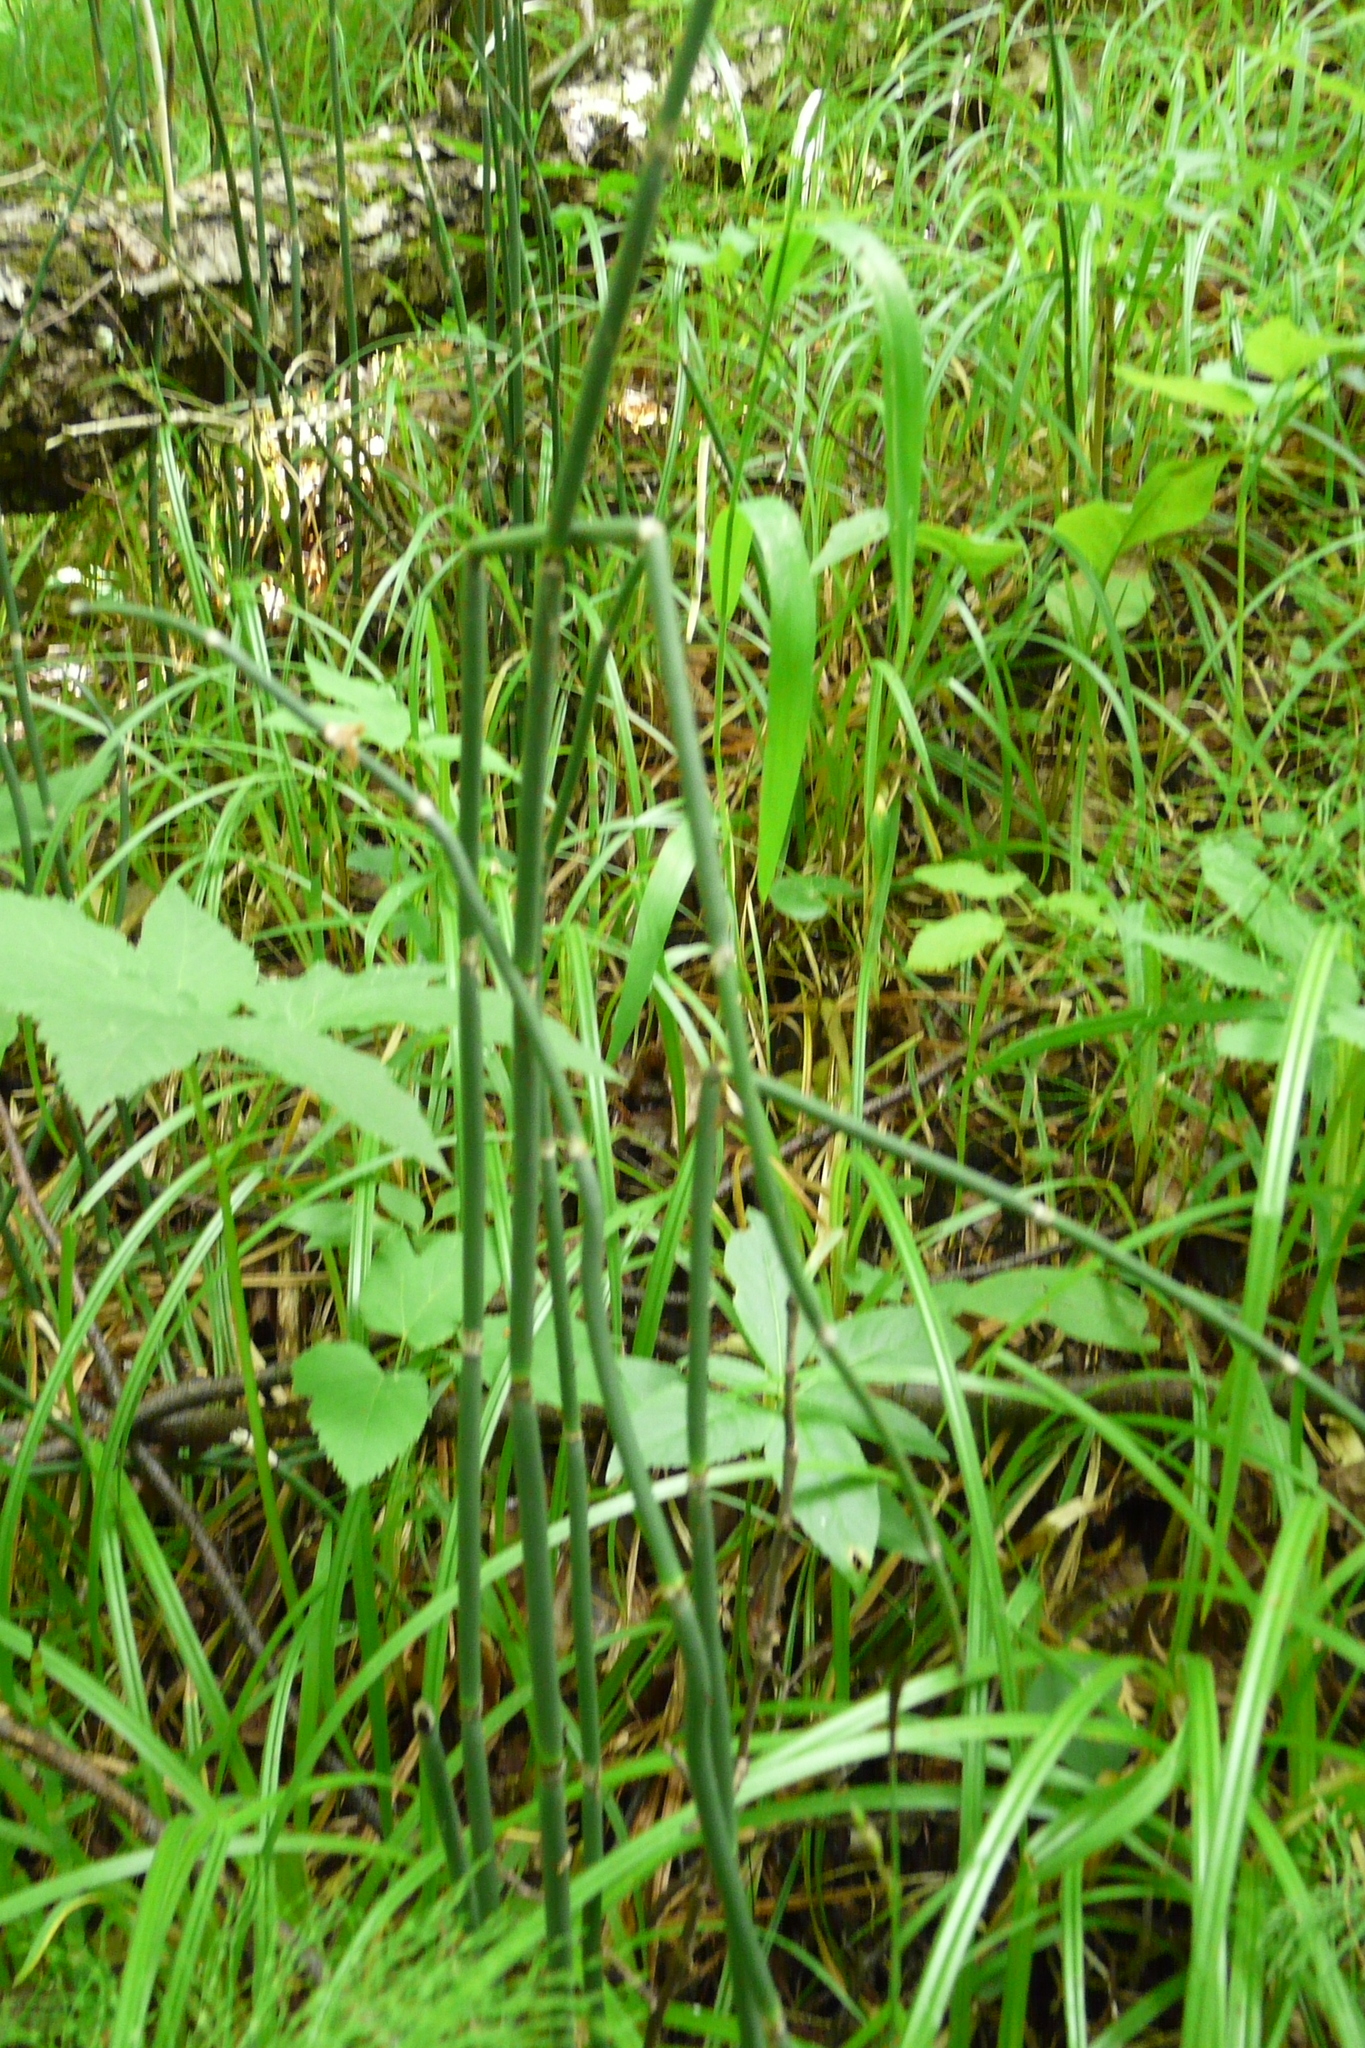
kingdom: Plantae
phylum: Tracheophyta
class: Polypodiopsida
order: Equisetales
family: Equisetaceae
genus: Equisetum
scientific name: Equisetum hyemale
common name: Rough horsetail
